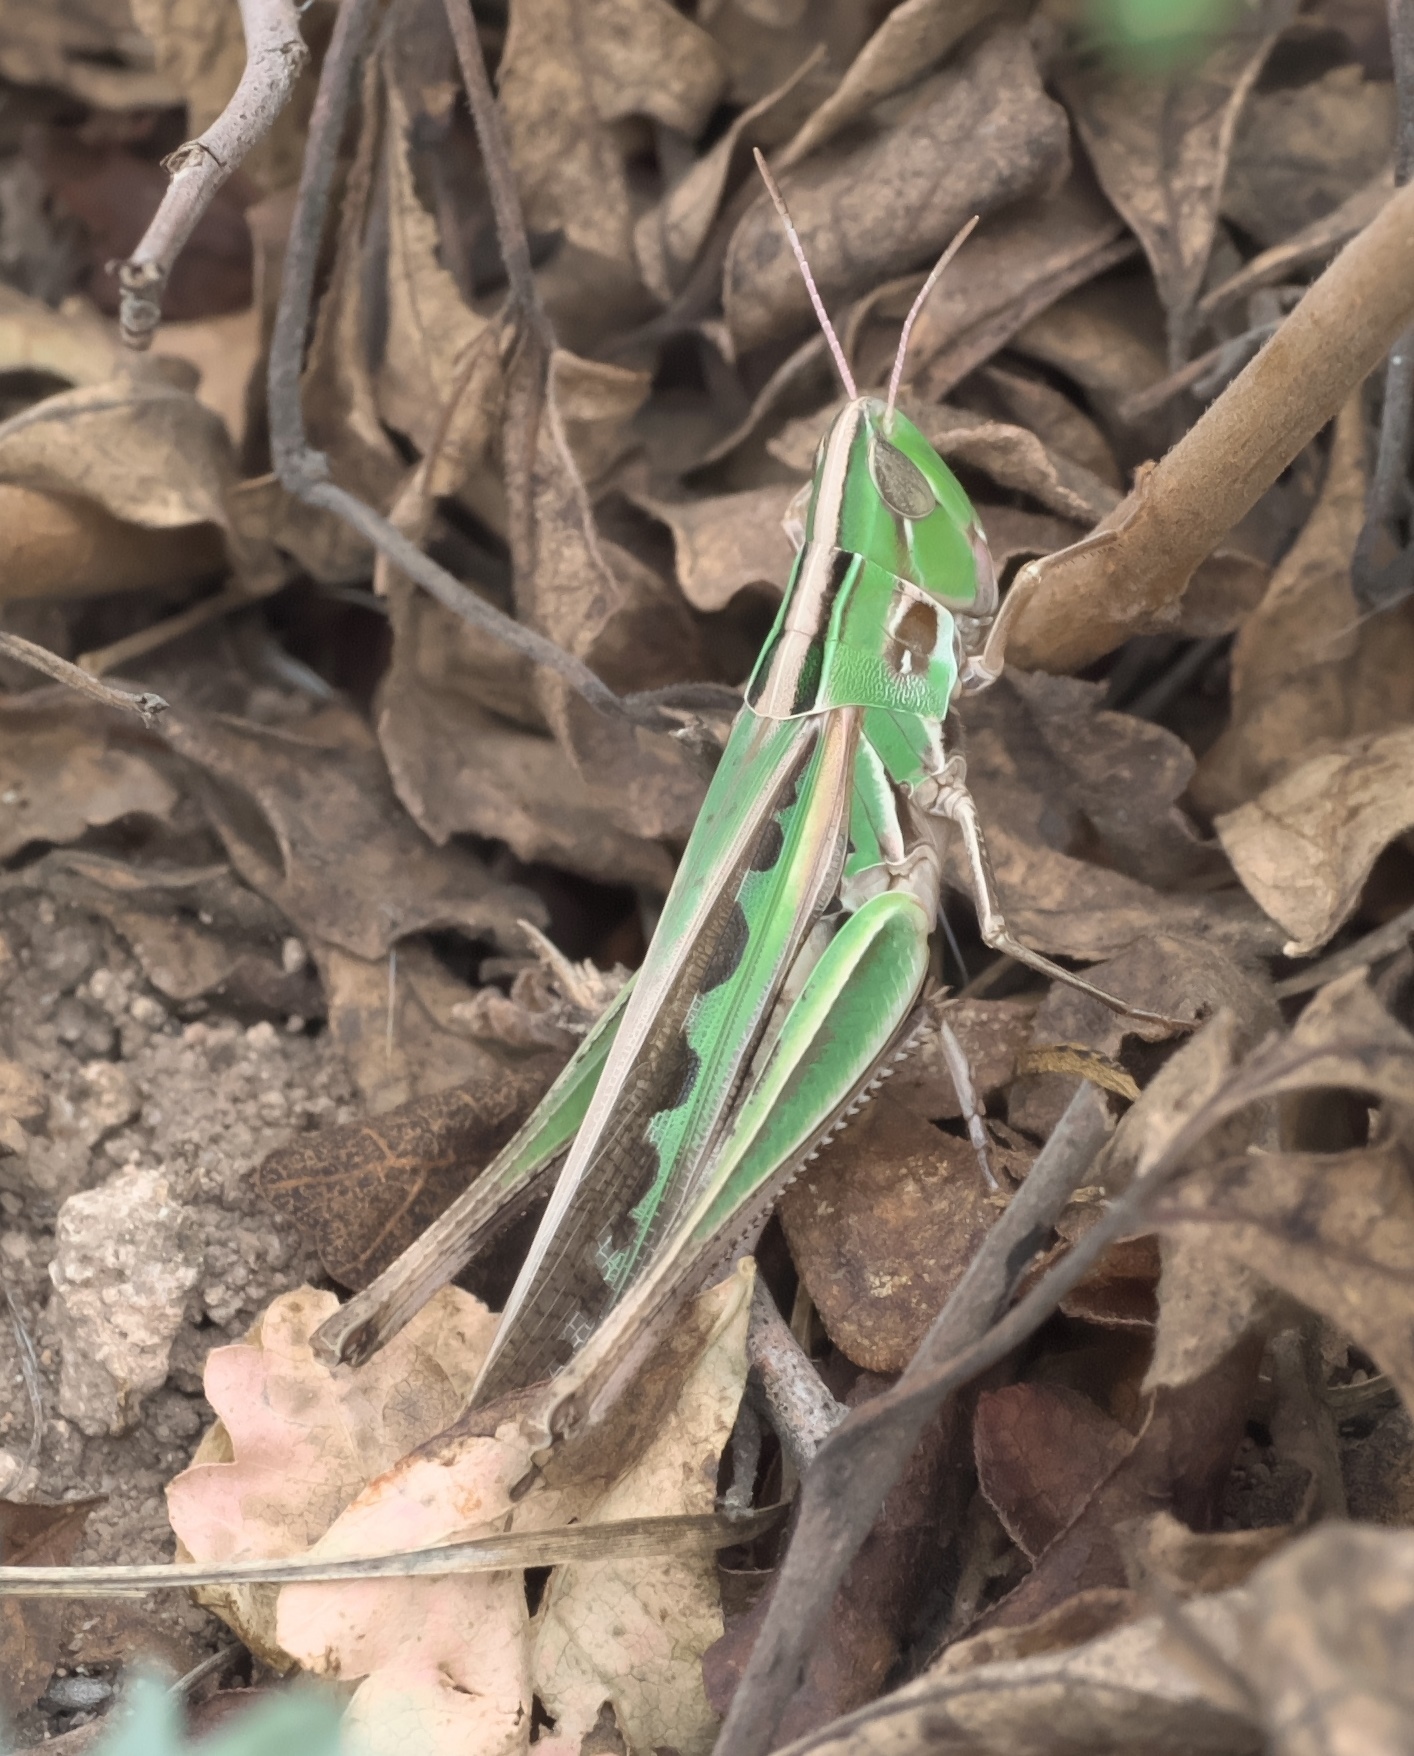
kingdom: Animalia
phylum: Arthropoda
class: Insecta
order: Orthoptera
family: Acrididae
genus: Syrbula
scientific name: Syrbula admirabilis
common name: Handsome grasshopper
